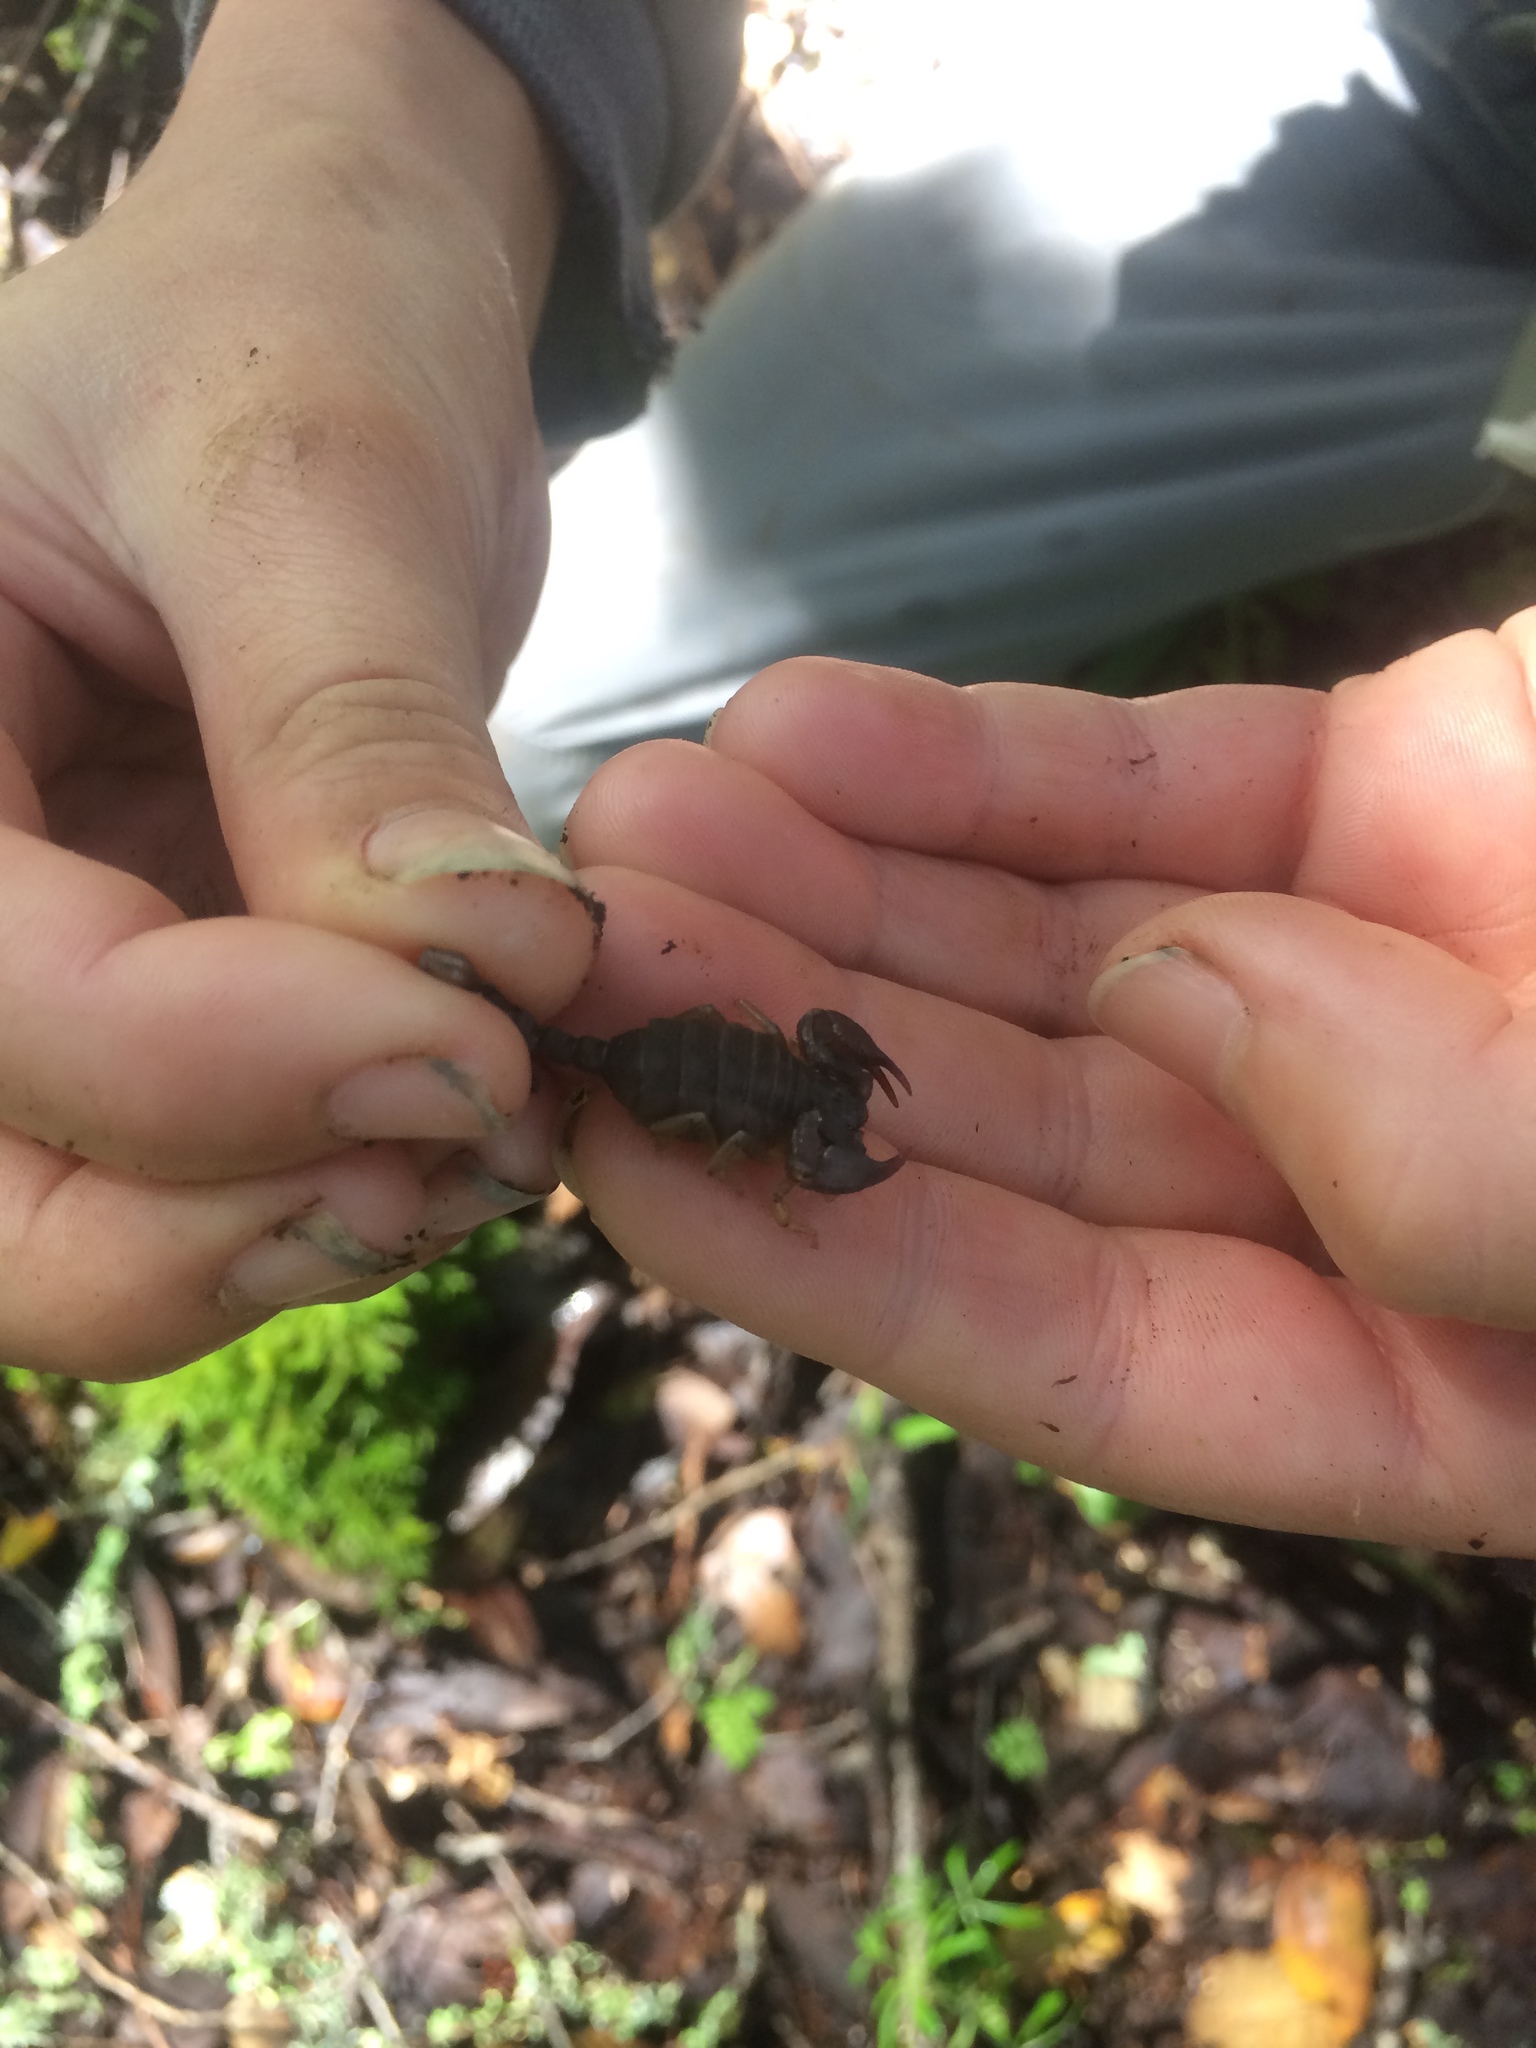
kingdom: Animalia
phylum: Arthropoda
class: Arachnida
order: Scorpiones
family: Chactidae
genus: Uroctonus
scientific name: Uroctonus mordax
